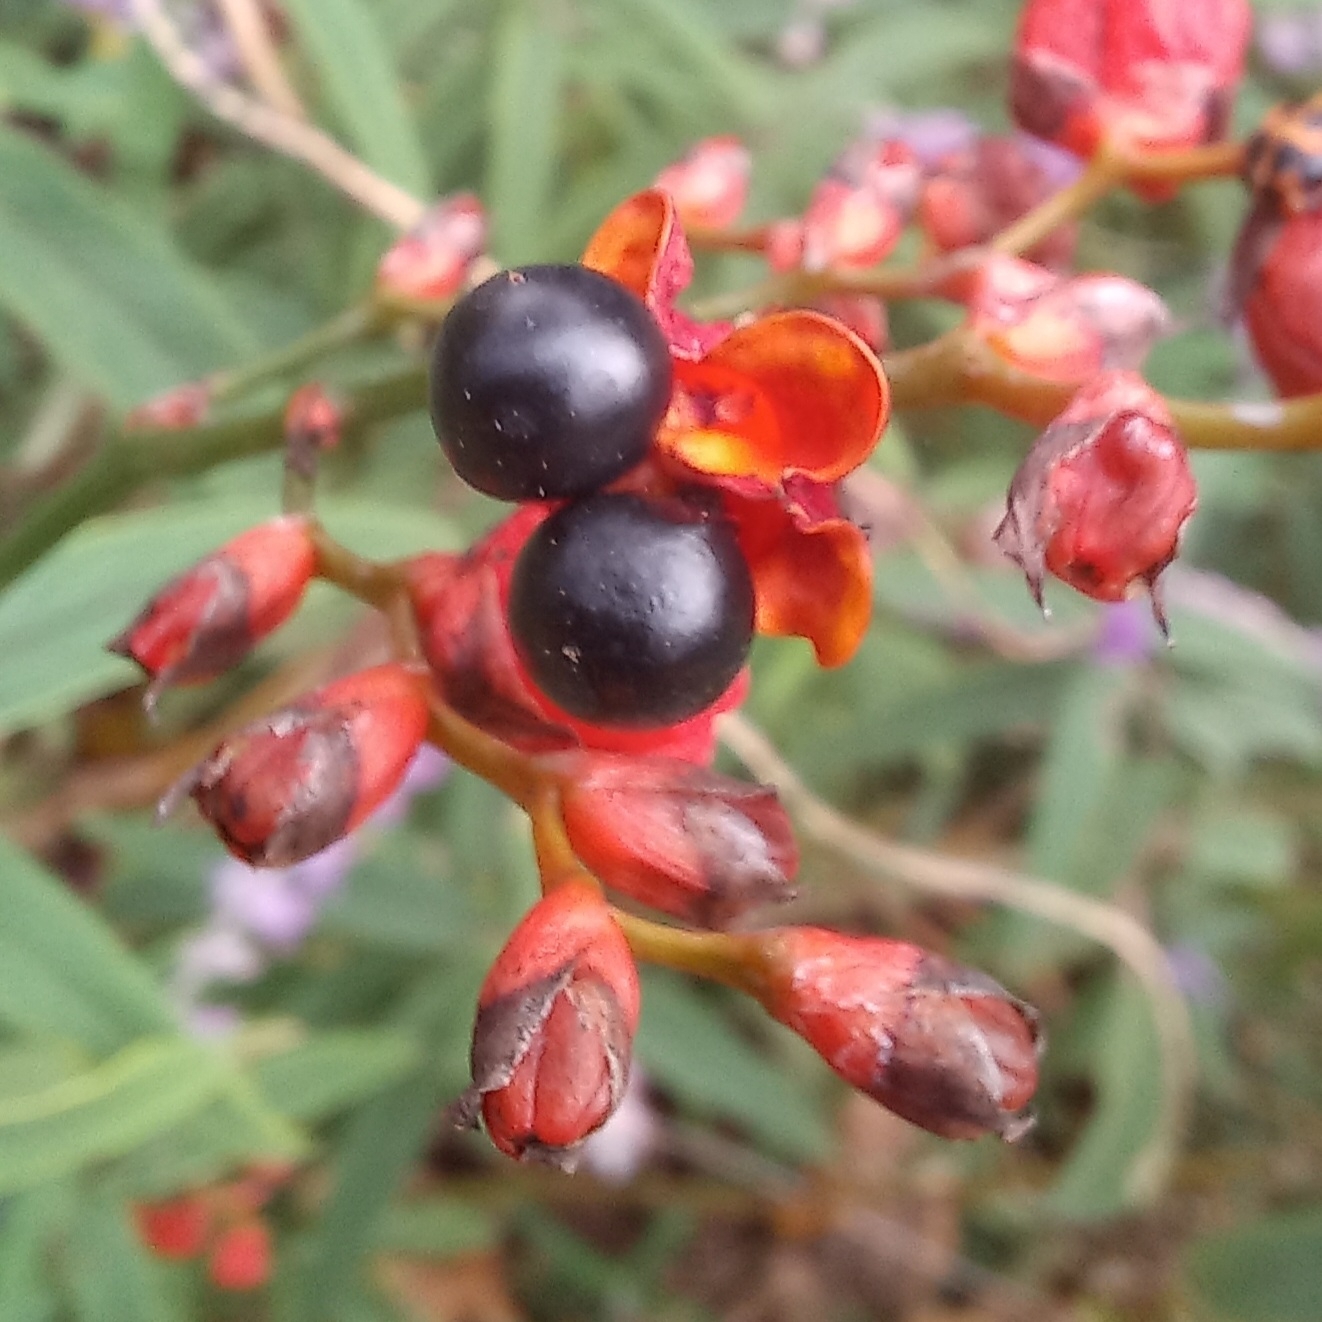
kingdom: Plantae
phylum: Tracheophyta
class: Liliopsida
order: Asparagales
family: Iridaceae
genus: Crocosmia
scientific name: Crocosmia aurea
